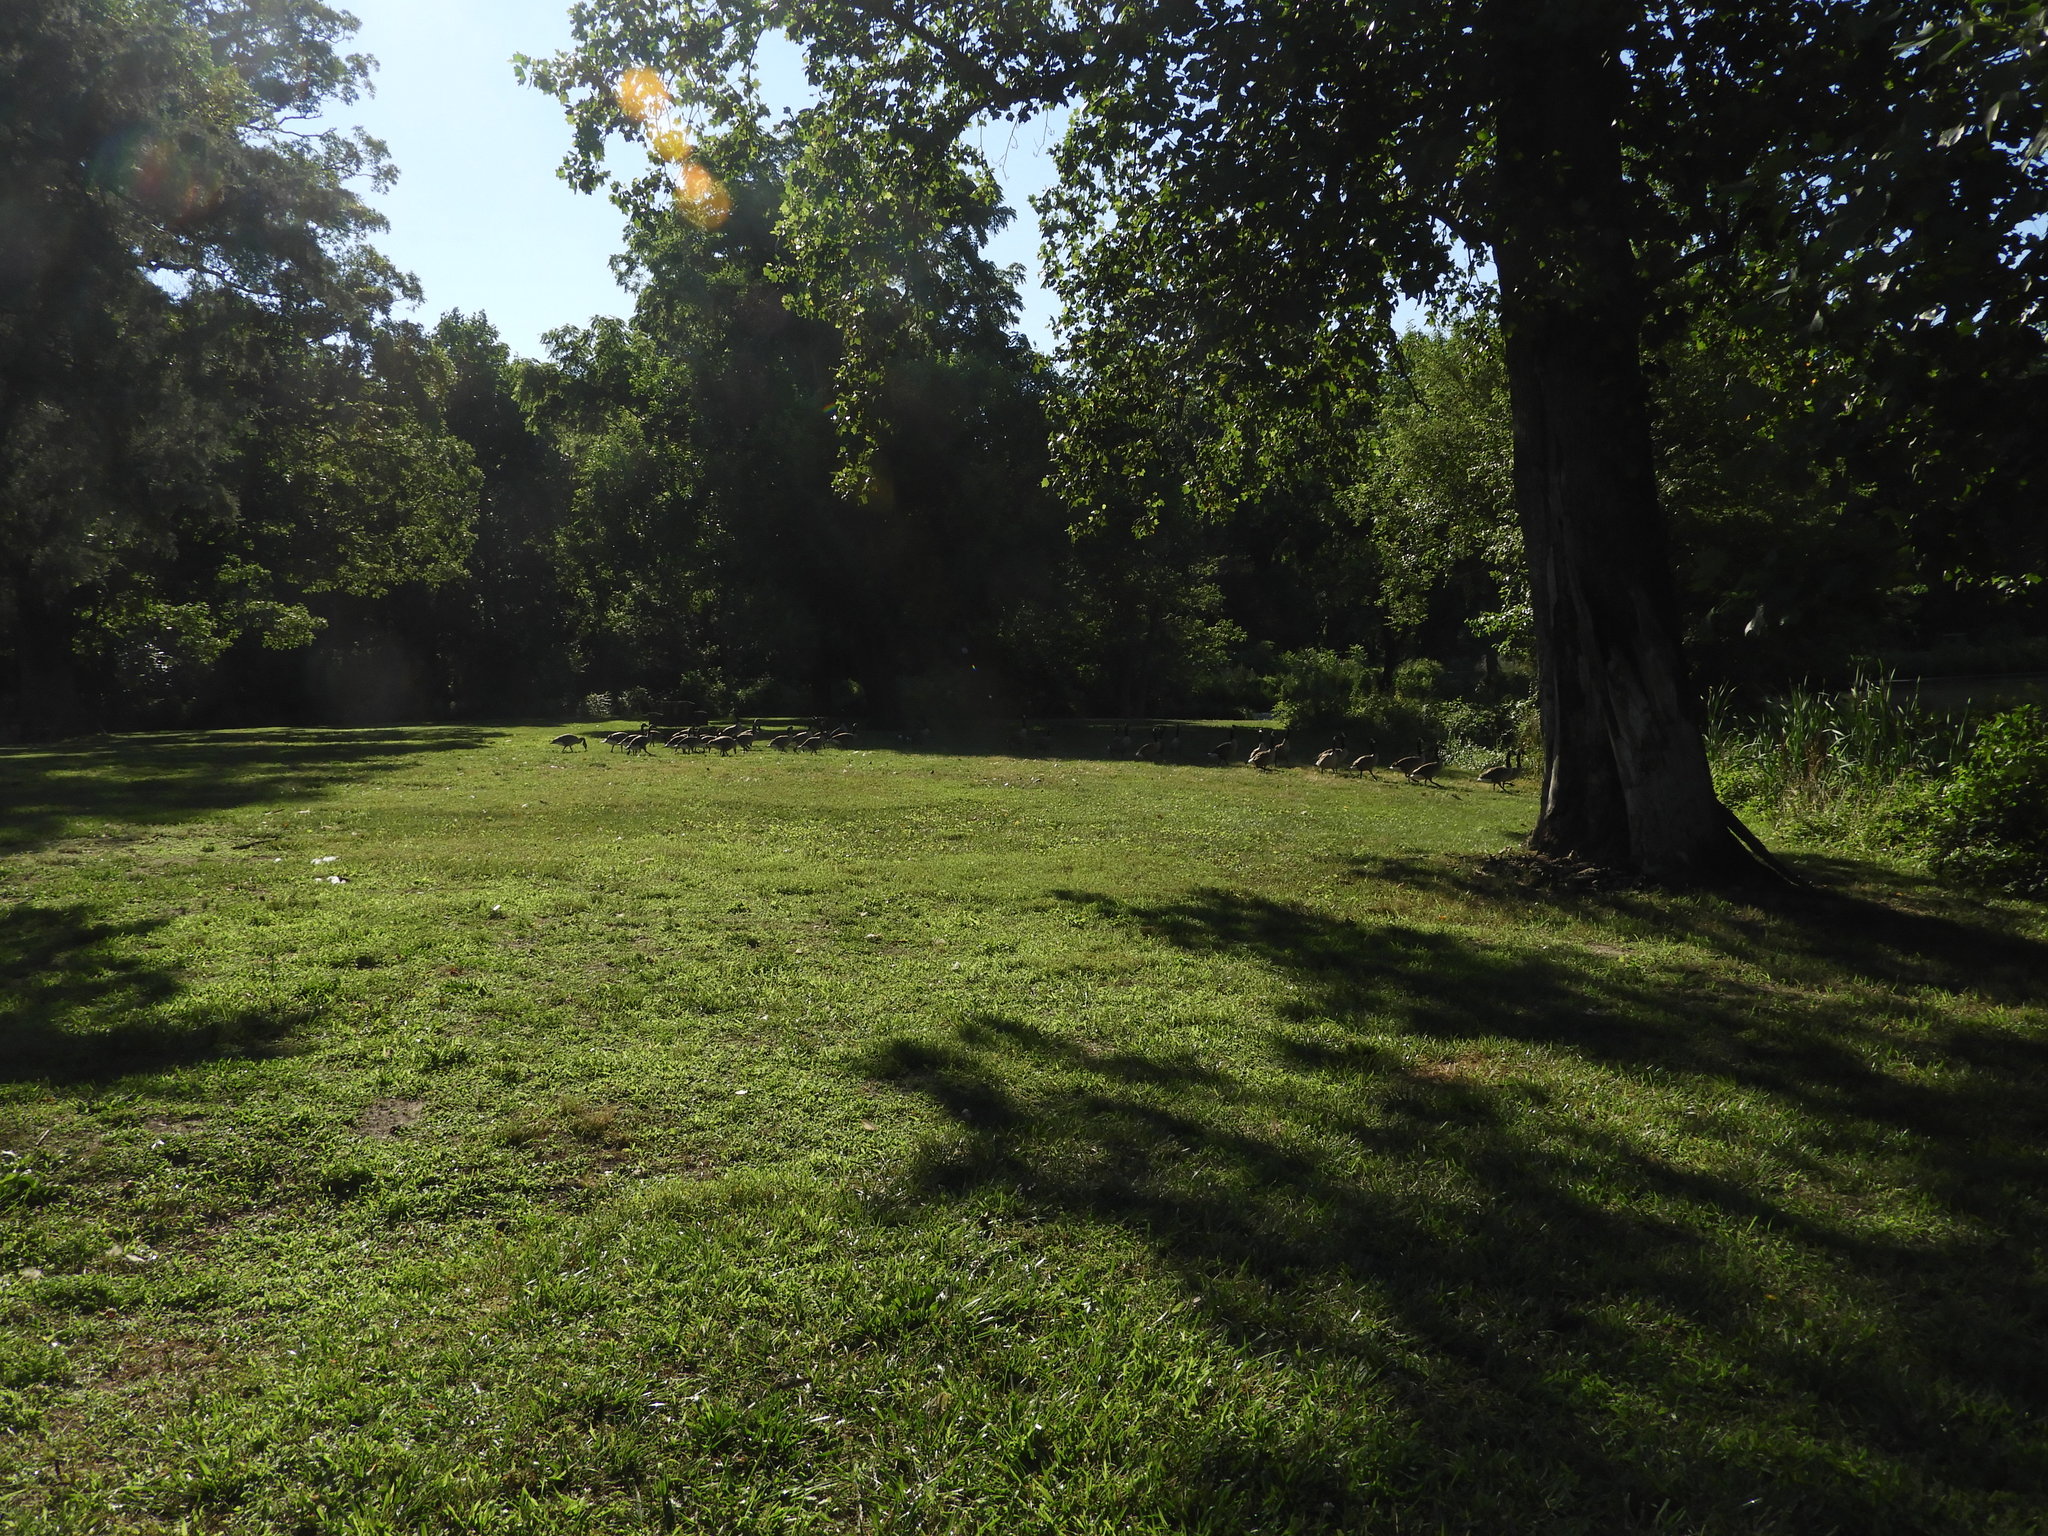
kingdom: Animalia
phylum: Chordata
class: Aves
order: Anseriformes
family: Anatidae
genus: Branta
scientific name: Branta canadensis
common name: Canada goose
